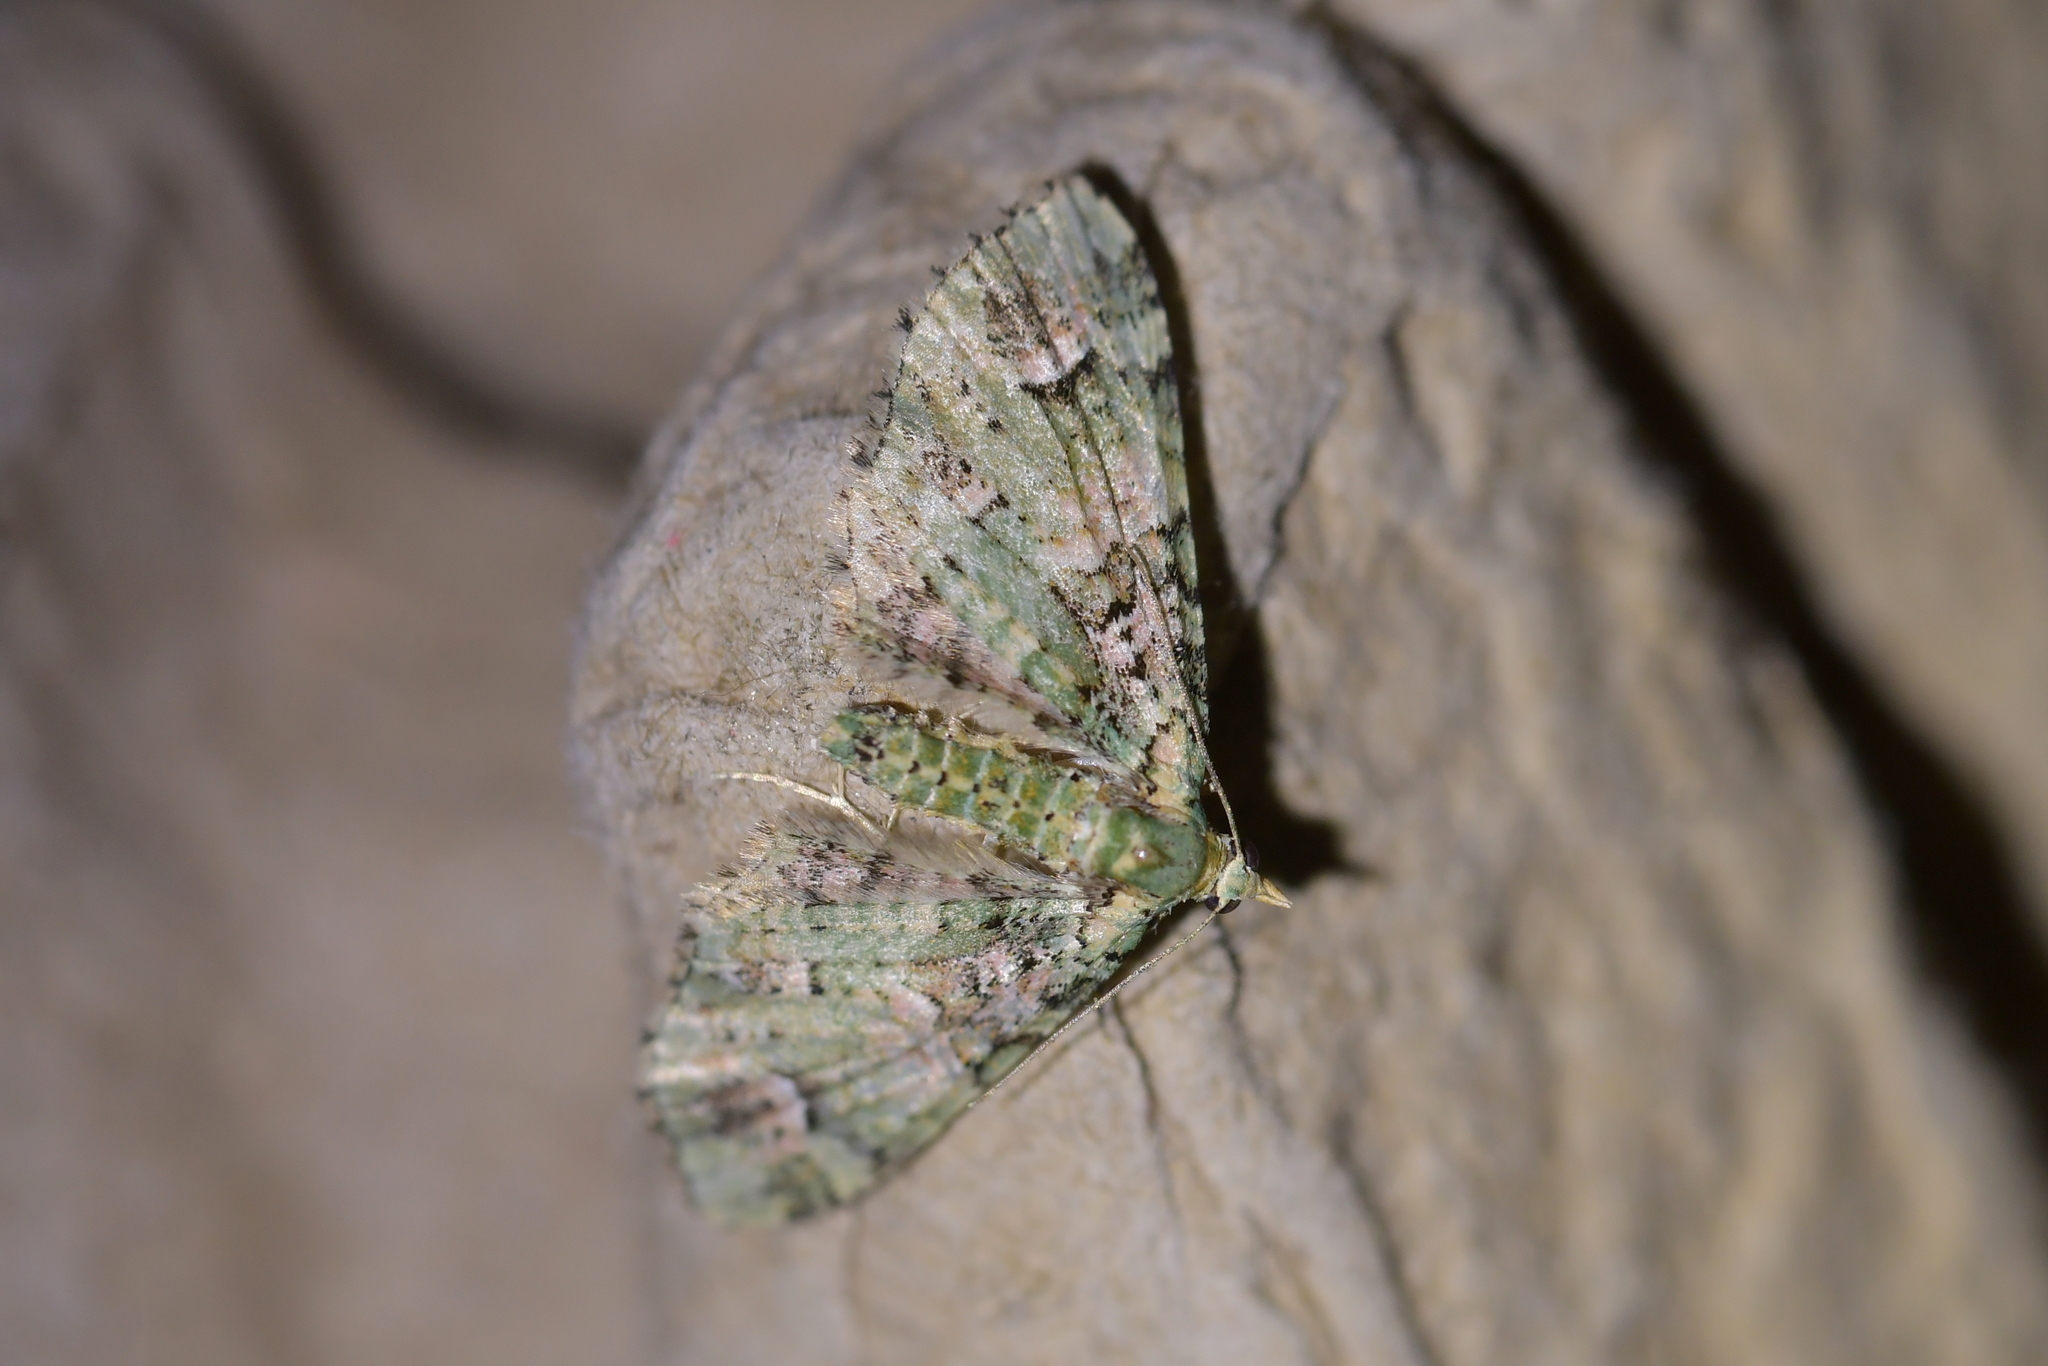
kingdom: Animalia
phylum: Arthropoda
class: Insecta
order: Lepidoptera
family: Geometridae
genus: Pasiphila
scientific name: Pasiphila semochlora
